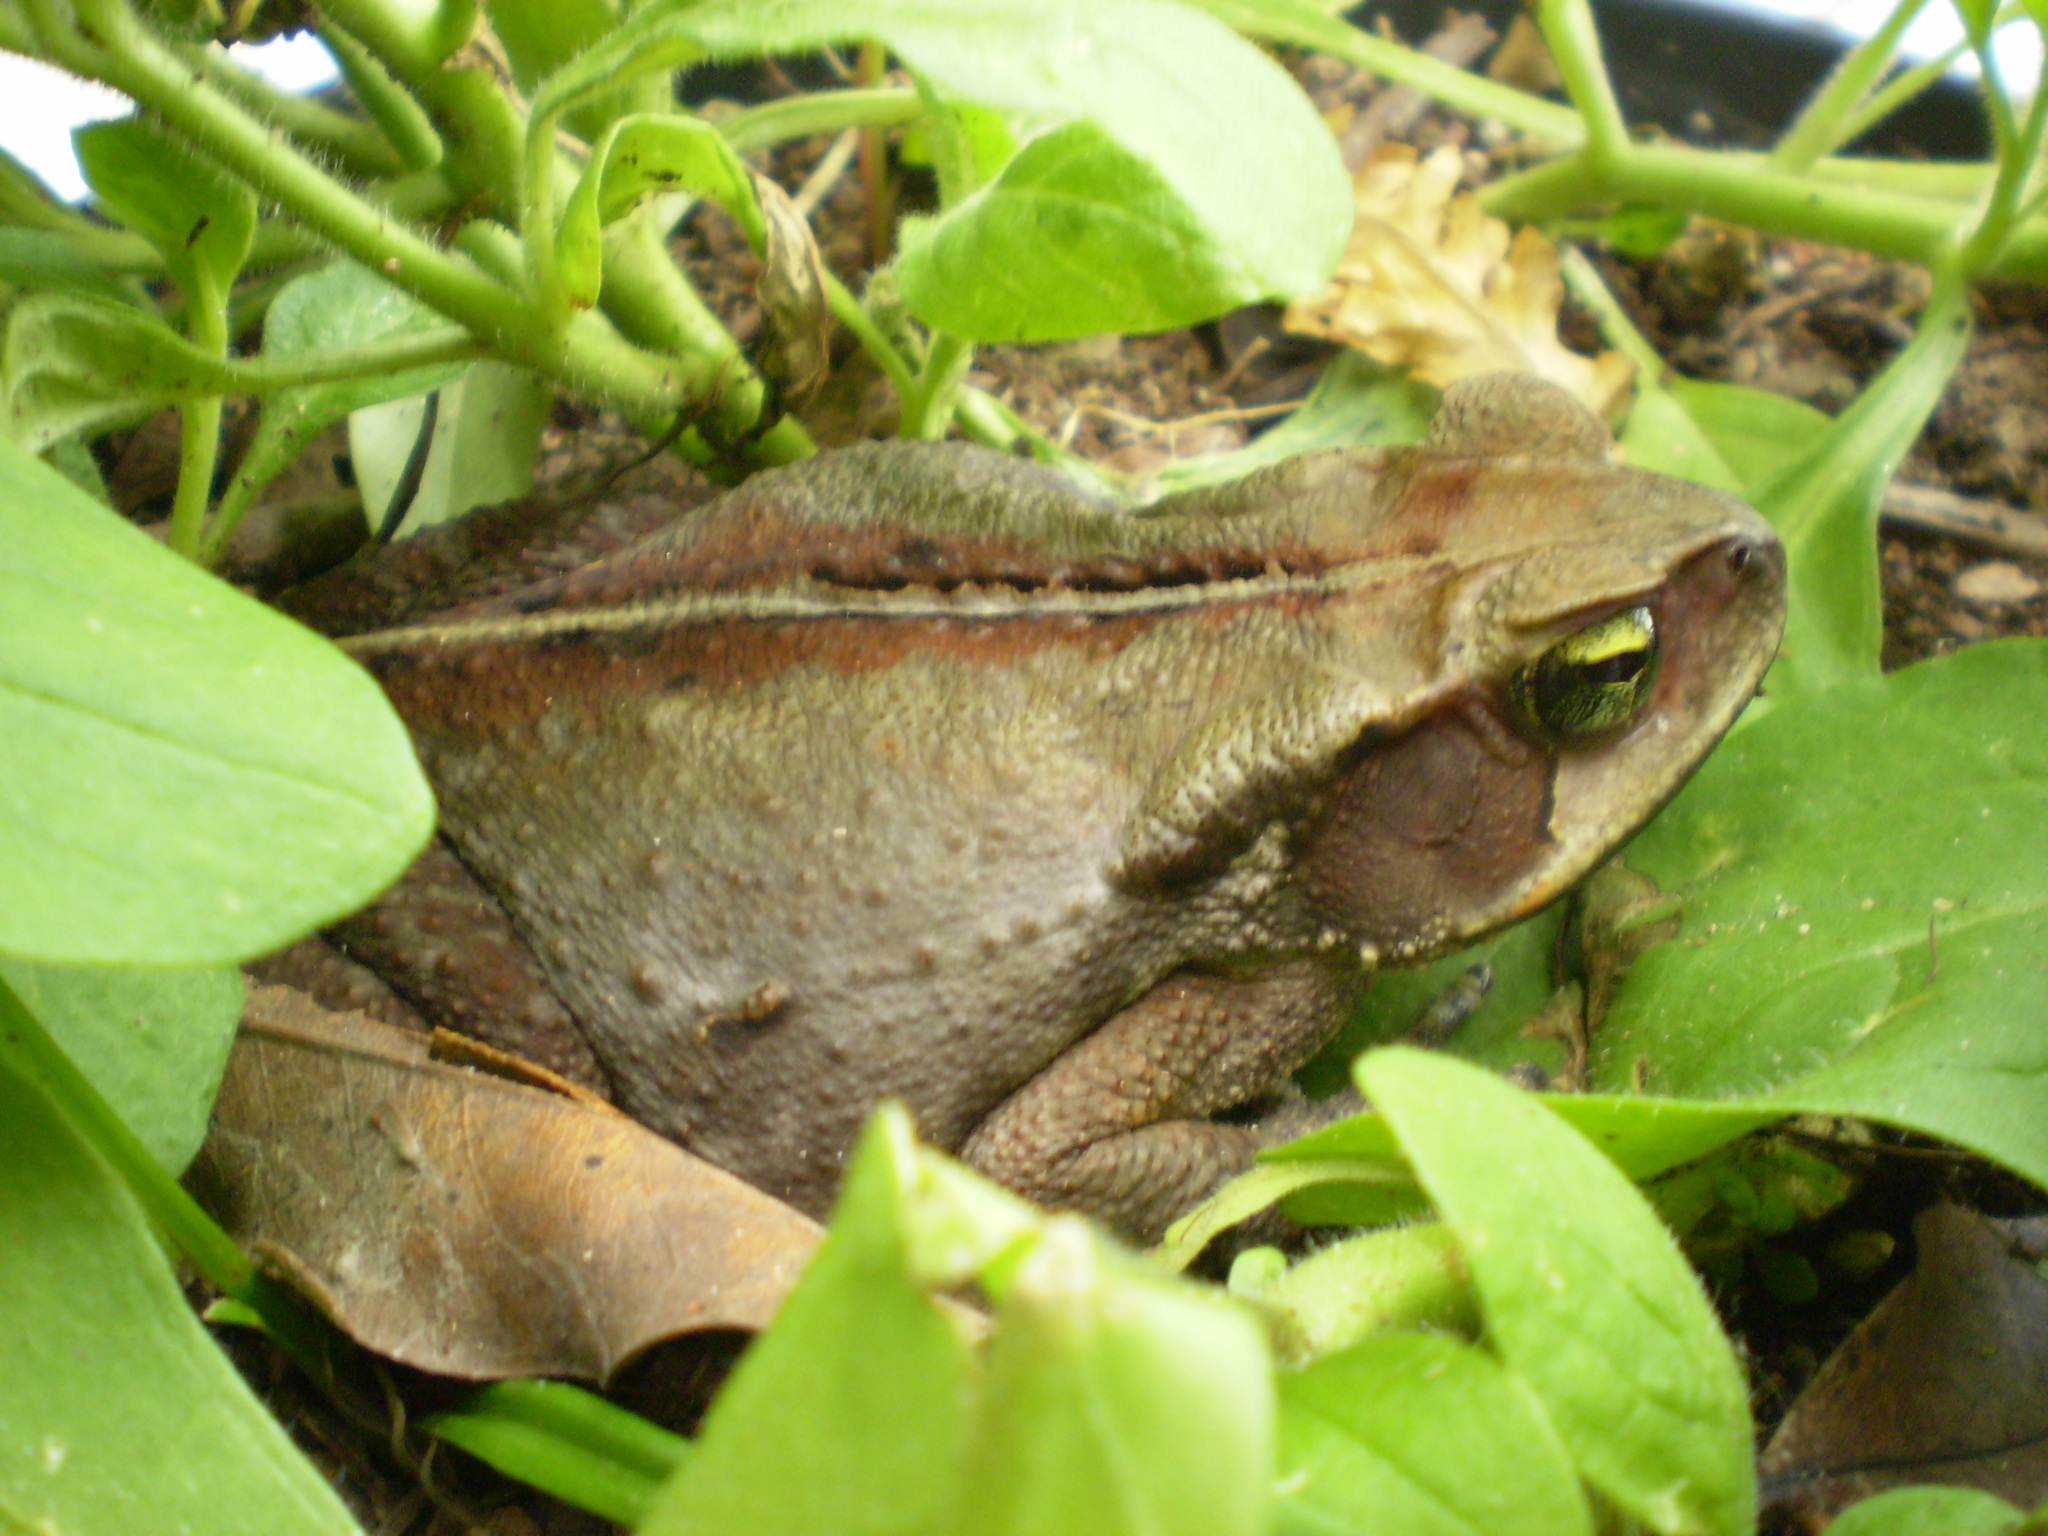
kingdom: Animalia
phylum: Chordata
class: Amphibia
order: Anura
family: Bufonidae
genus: Rhinella
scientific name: Rhinella ornata
